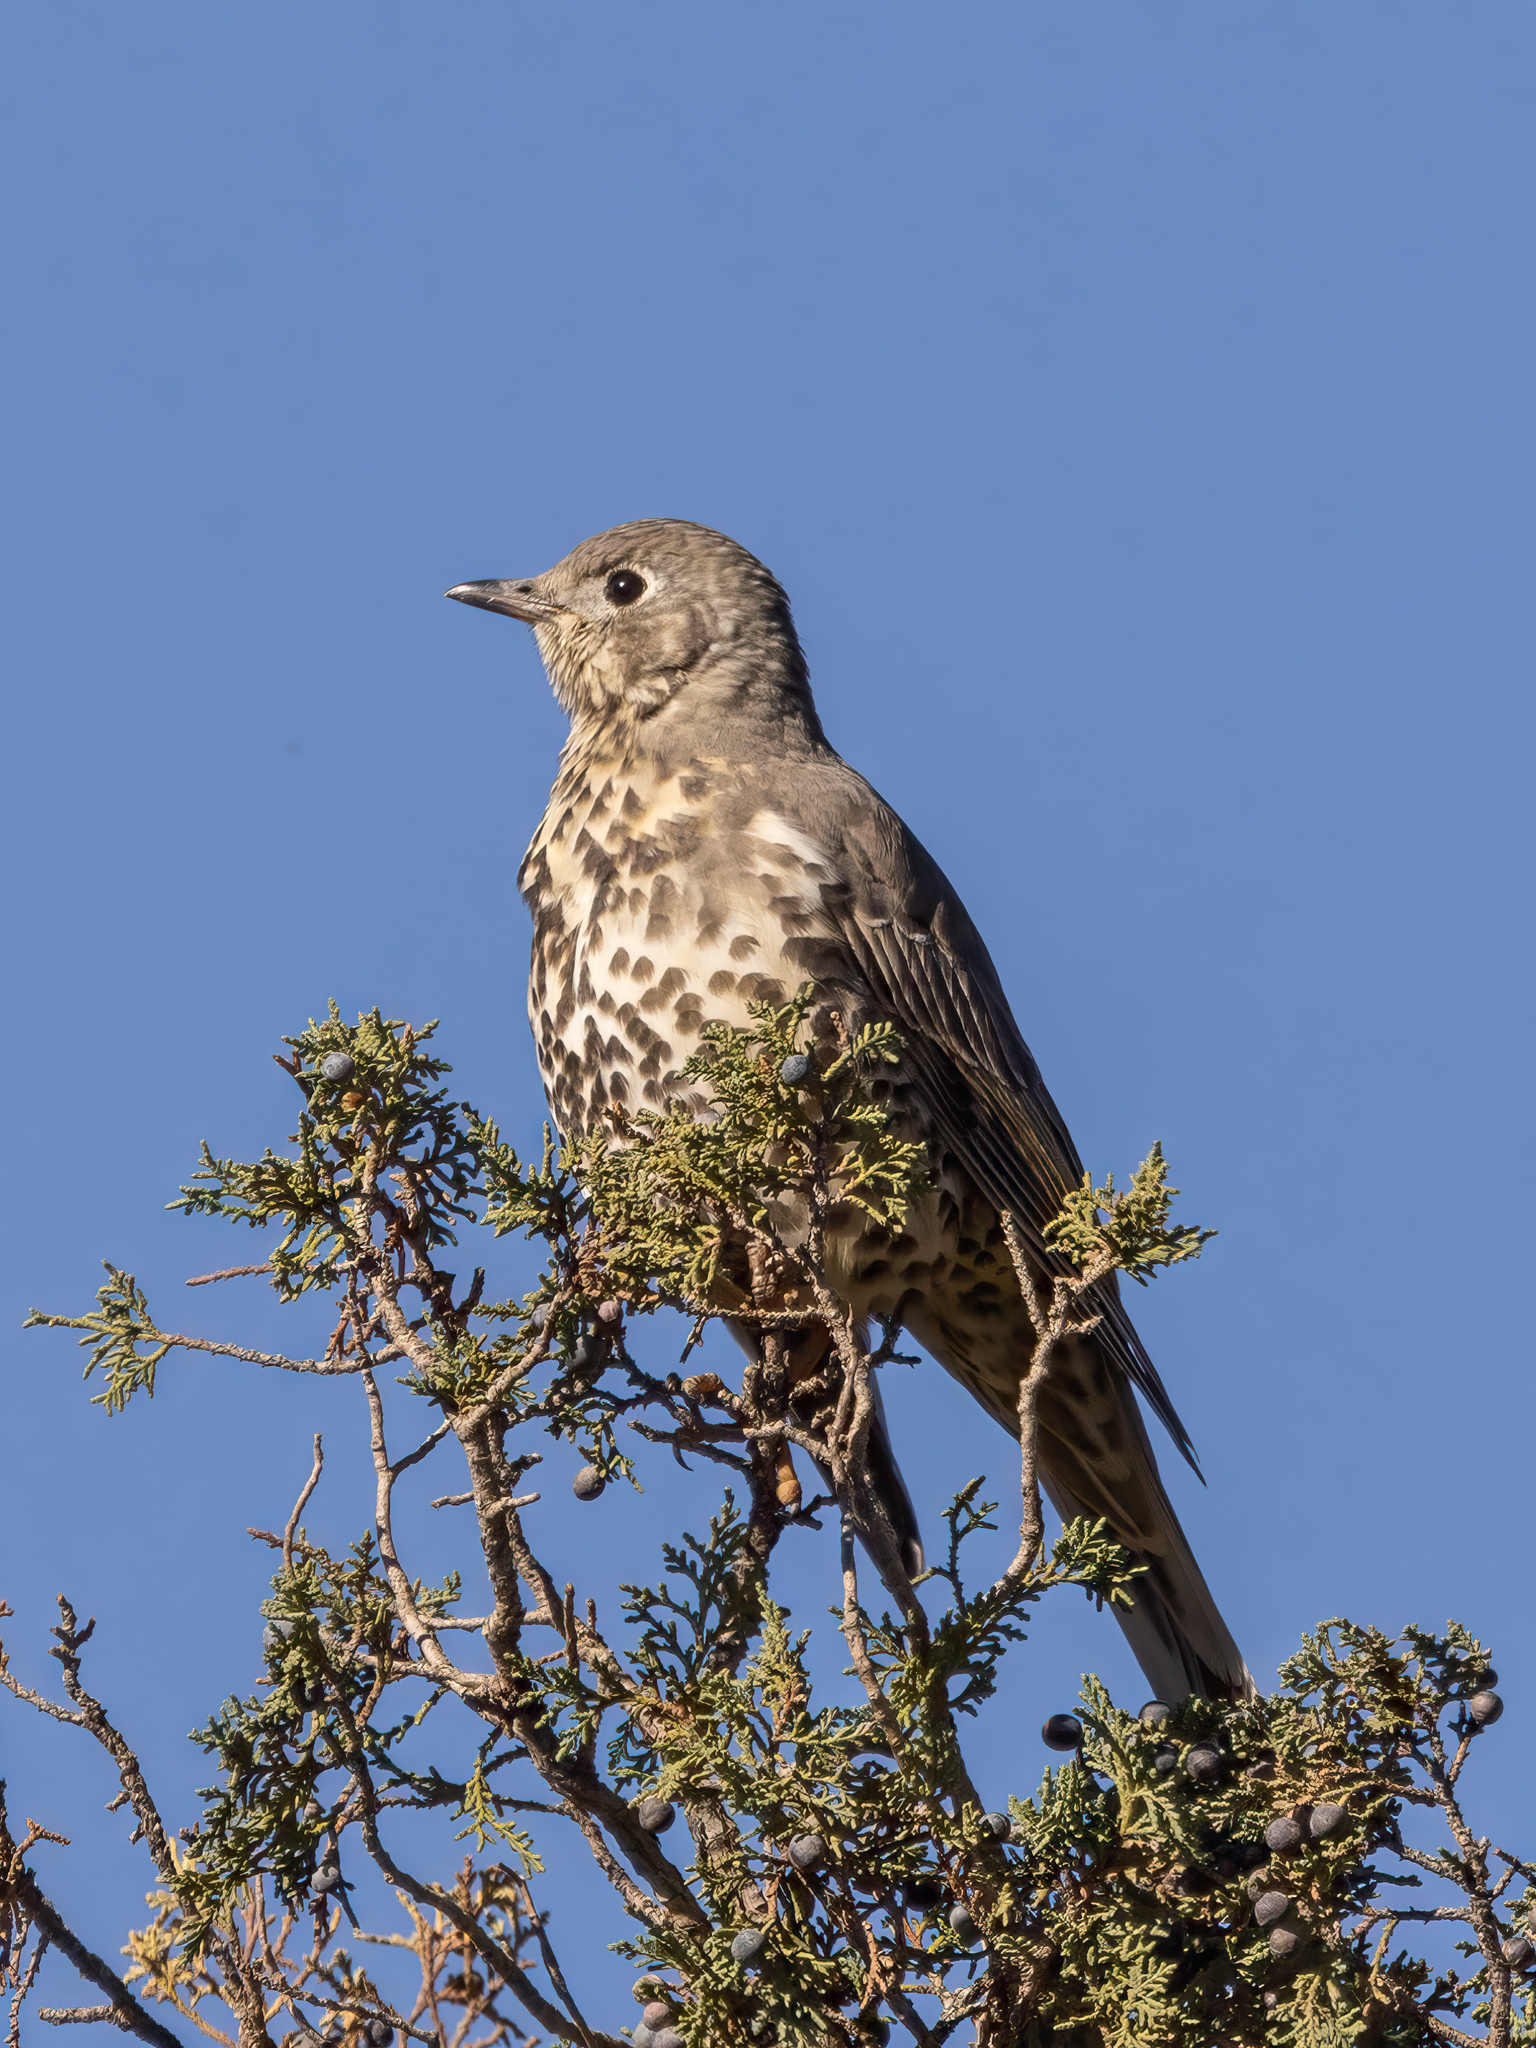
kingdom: Animalia
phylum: Chordata
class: Aves
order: Passeriformes
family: Turdidae
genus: Turdus
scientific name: Turdus viscivorus
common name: Mistle thrush
